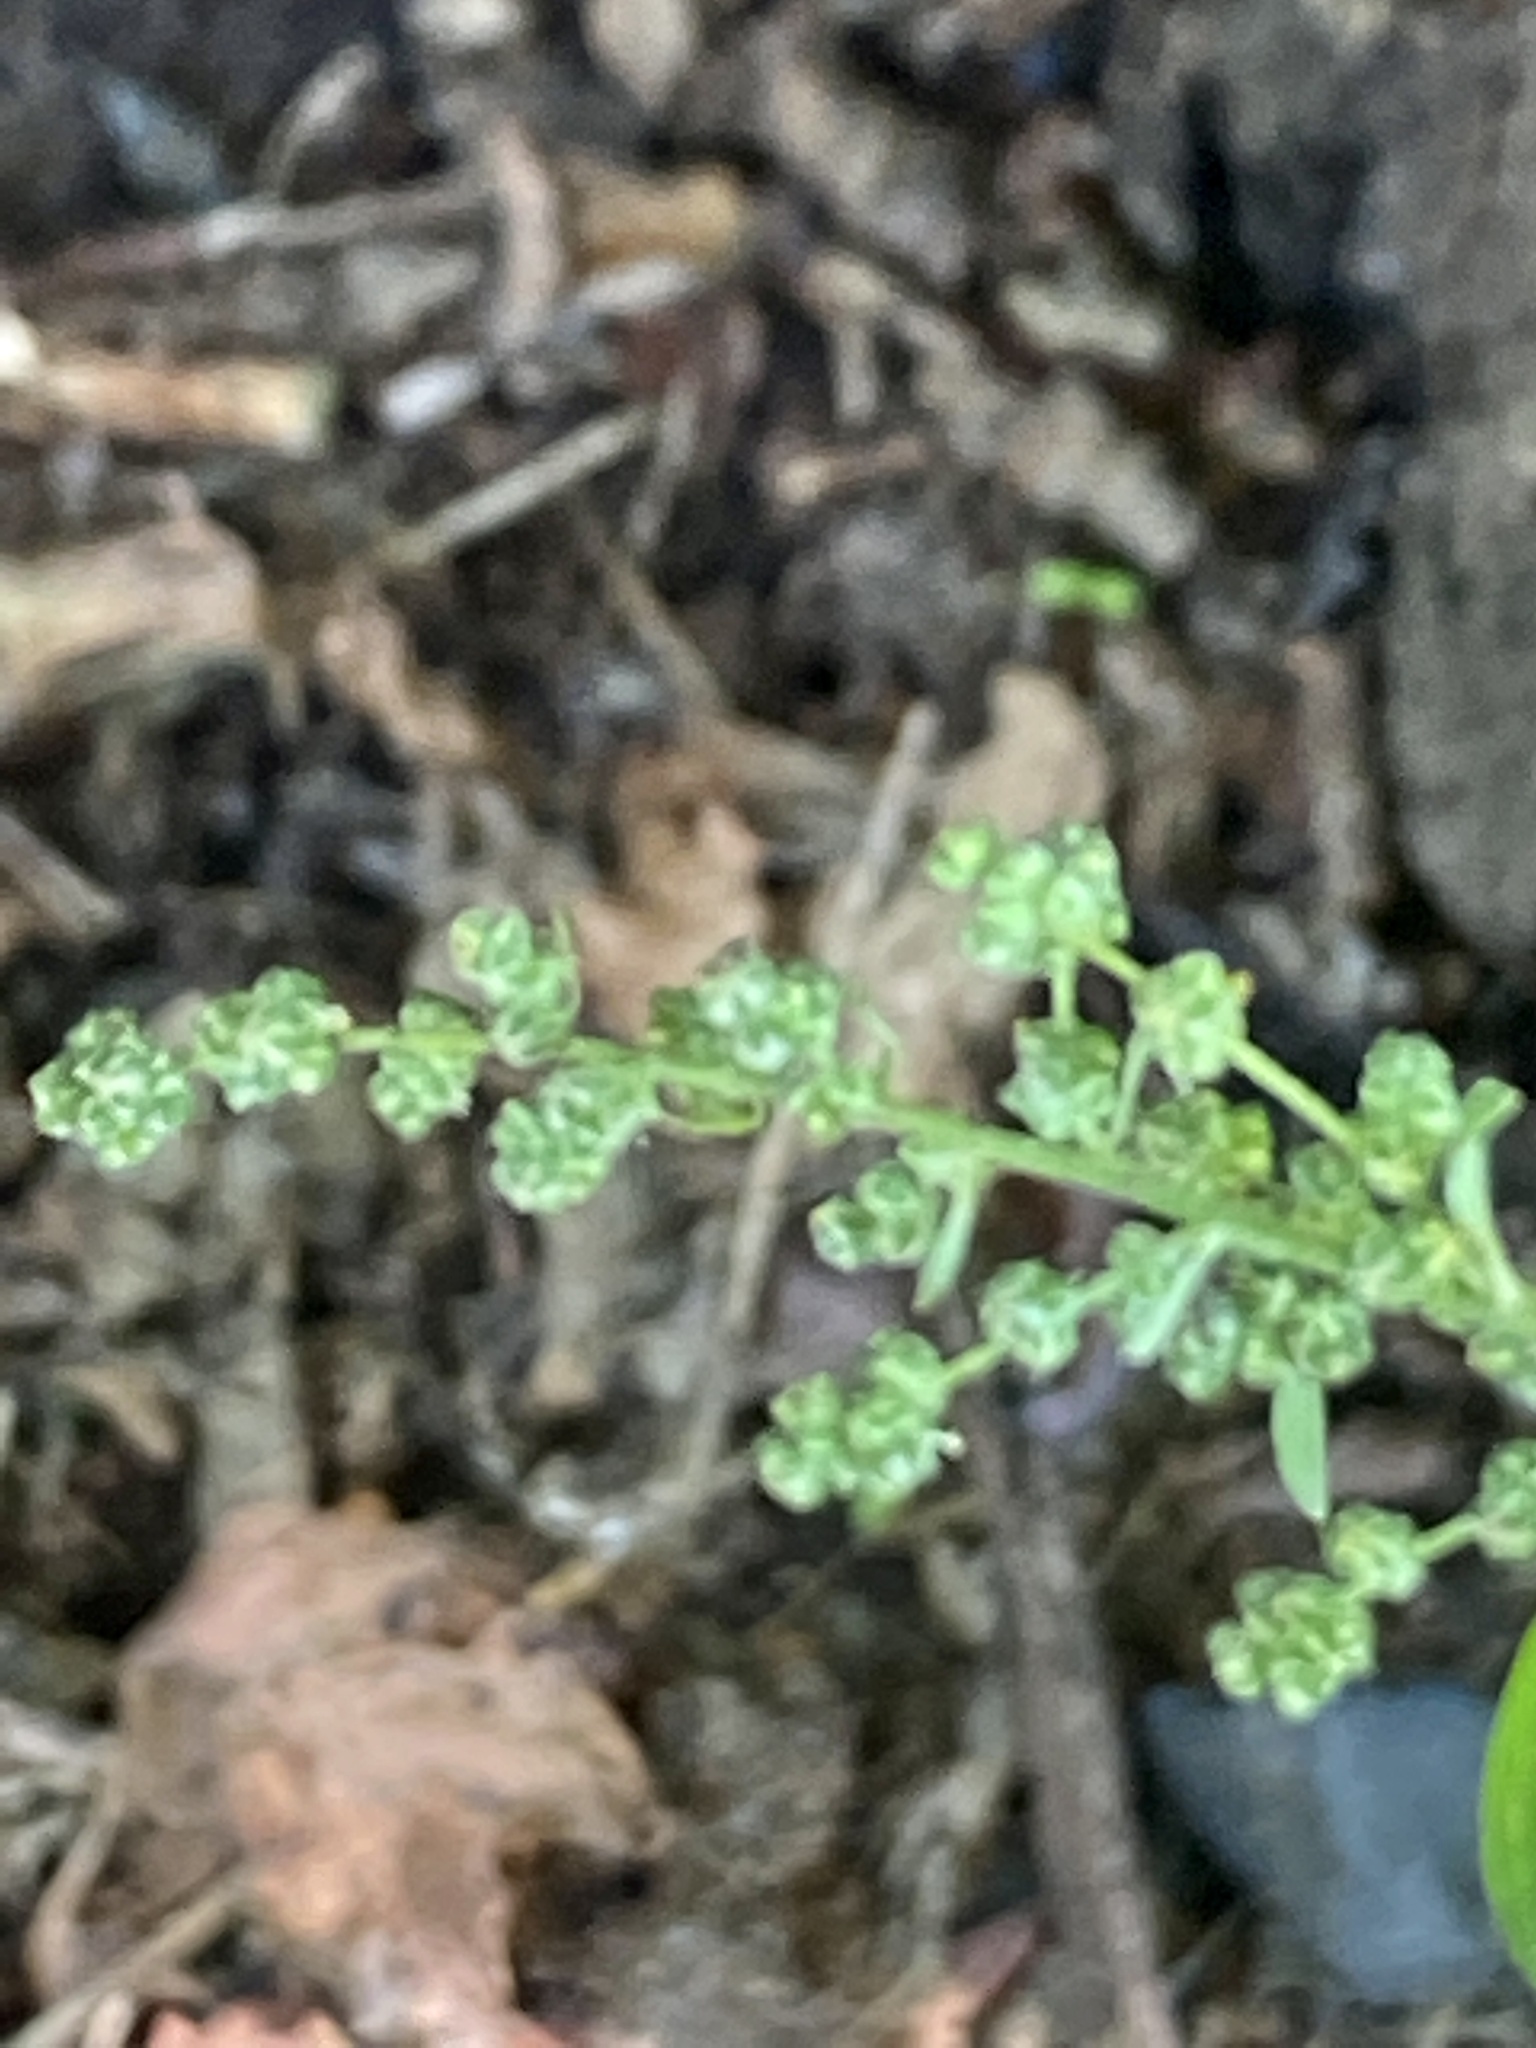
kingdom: Plantae
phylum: Tracheophyta
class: Magnoliopsida
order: Caryophyllales
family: Amaranthaceae
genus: Chenopodium
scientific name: Chenopodium album
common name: Fat-hen
